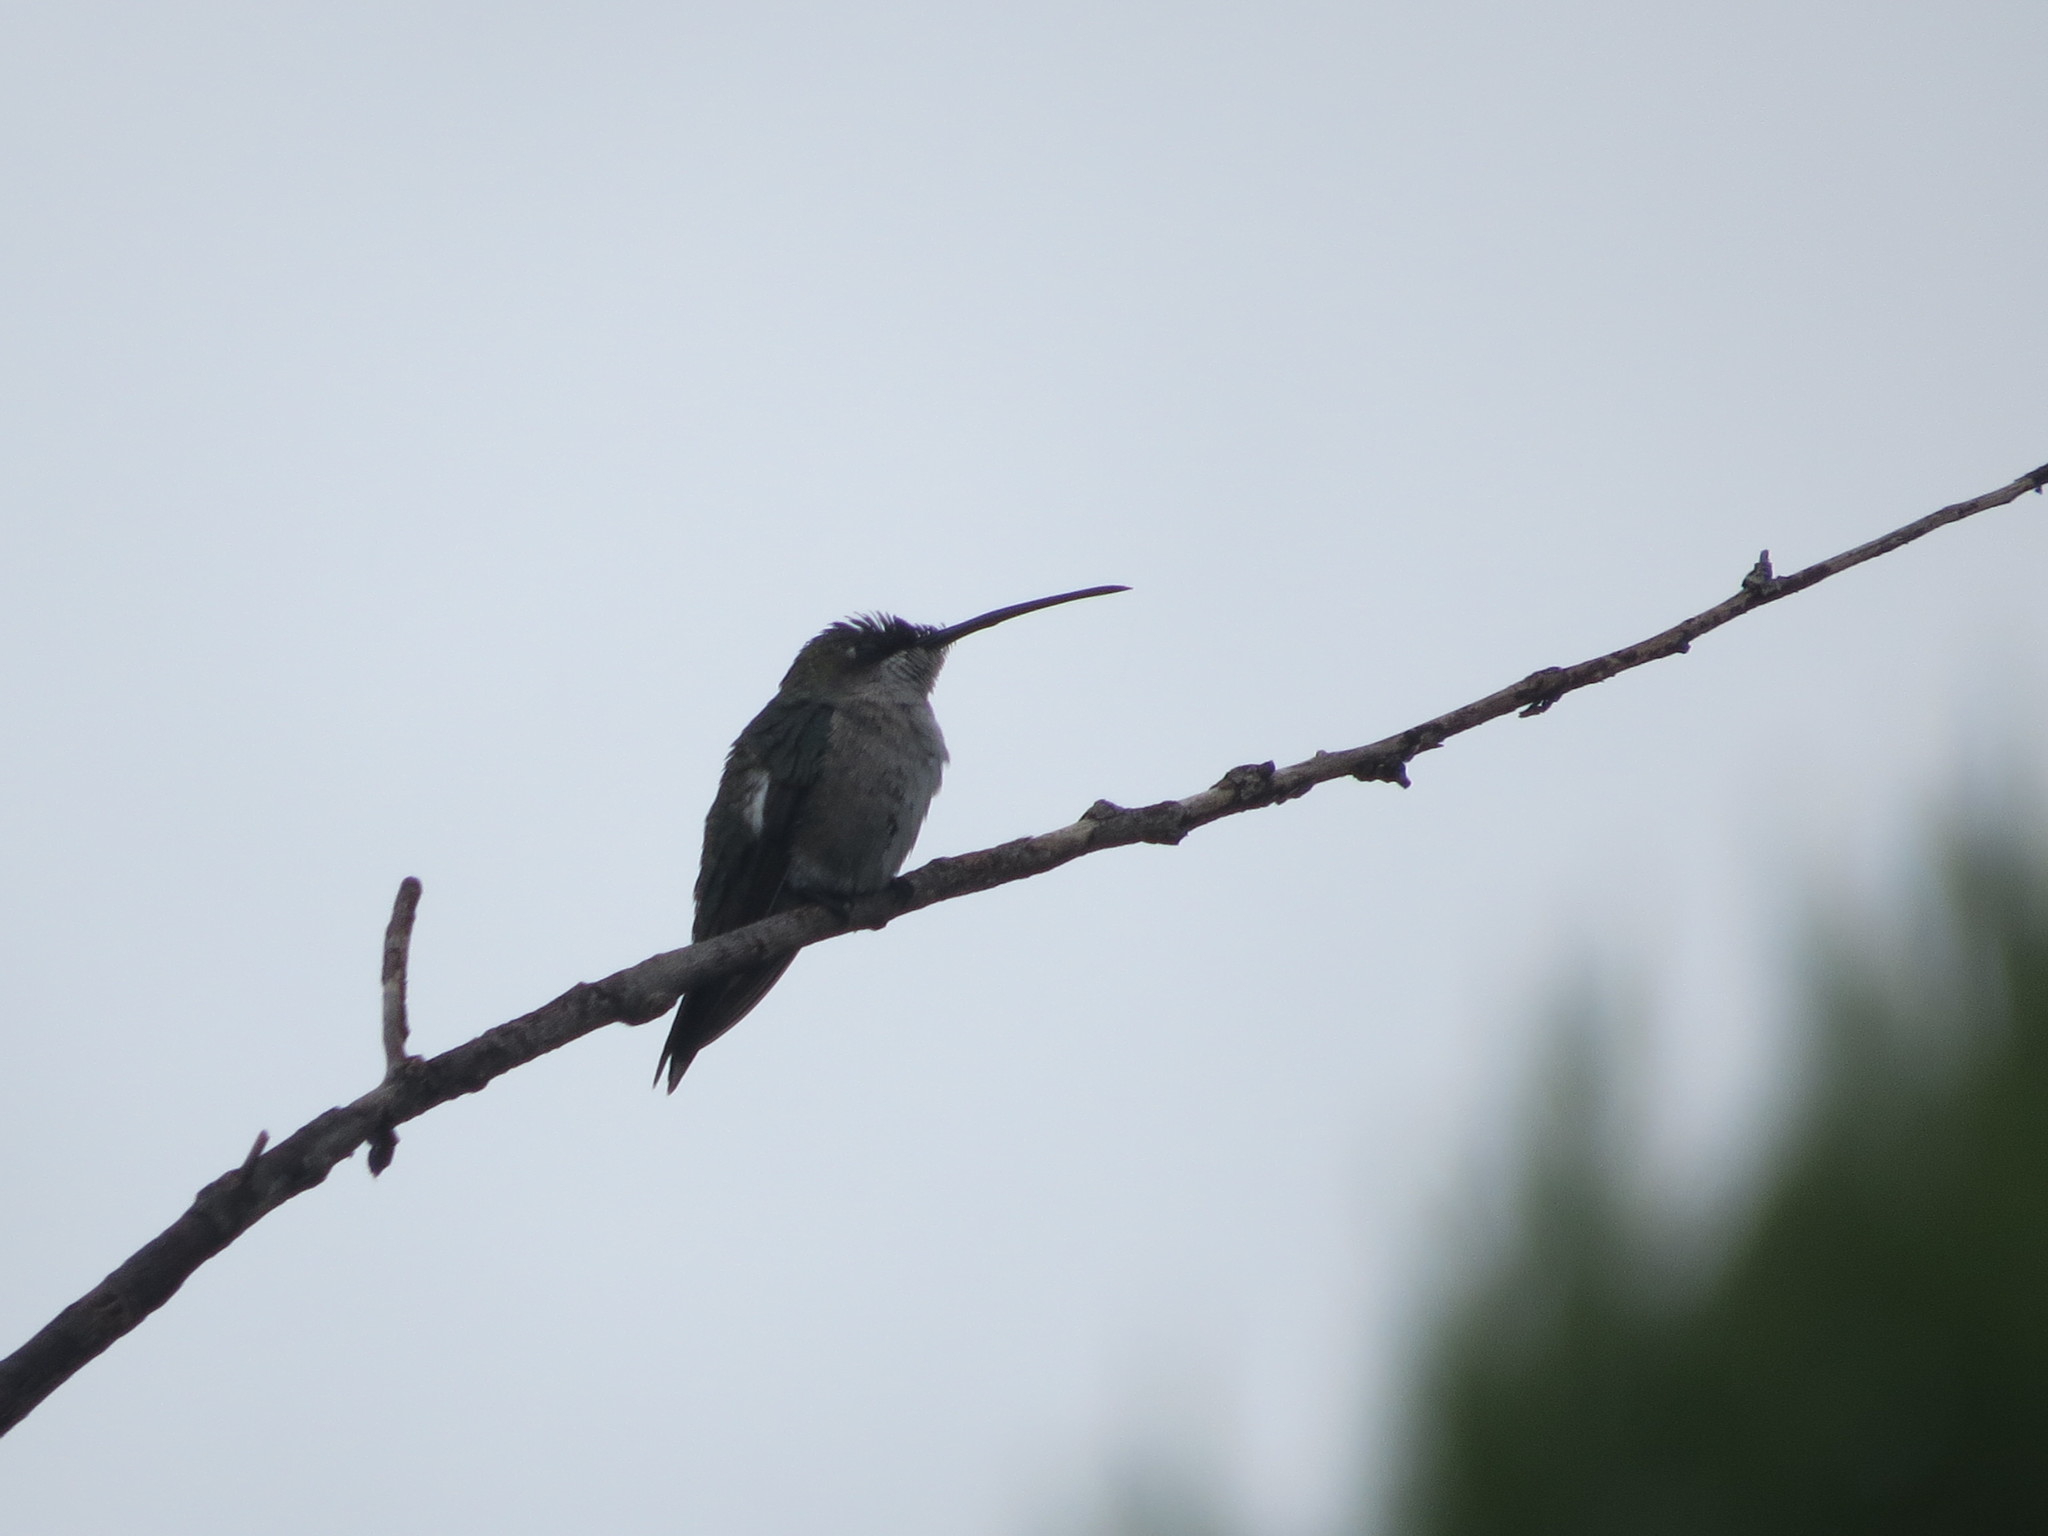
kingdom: Animalia
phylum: Chordata
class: Aves
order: Apodiformes
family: Trochilidae
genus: Heliomaster
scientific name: Heliomaster furcifer
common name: Blue-tufted starthroat
